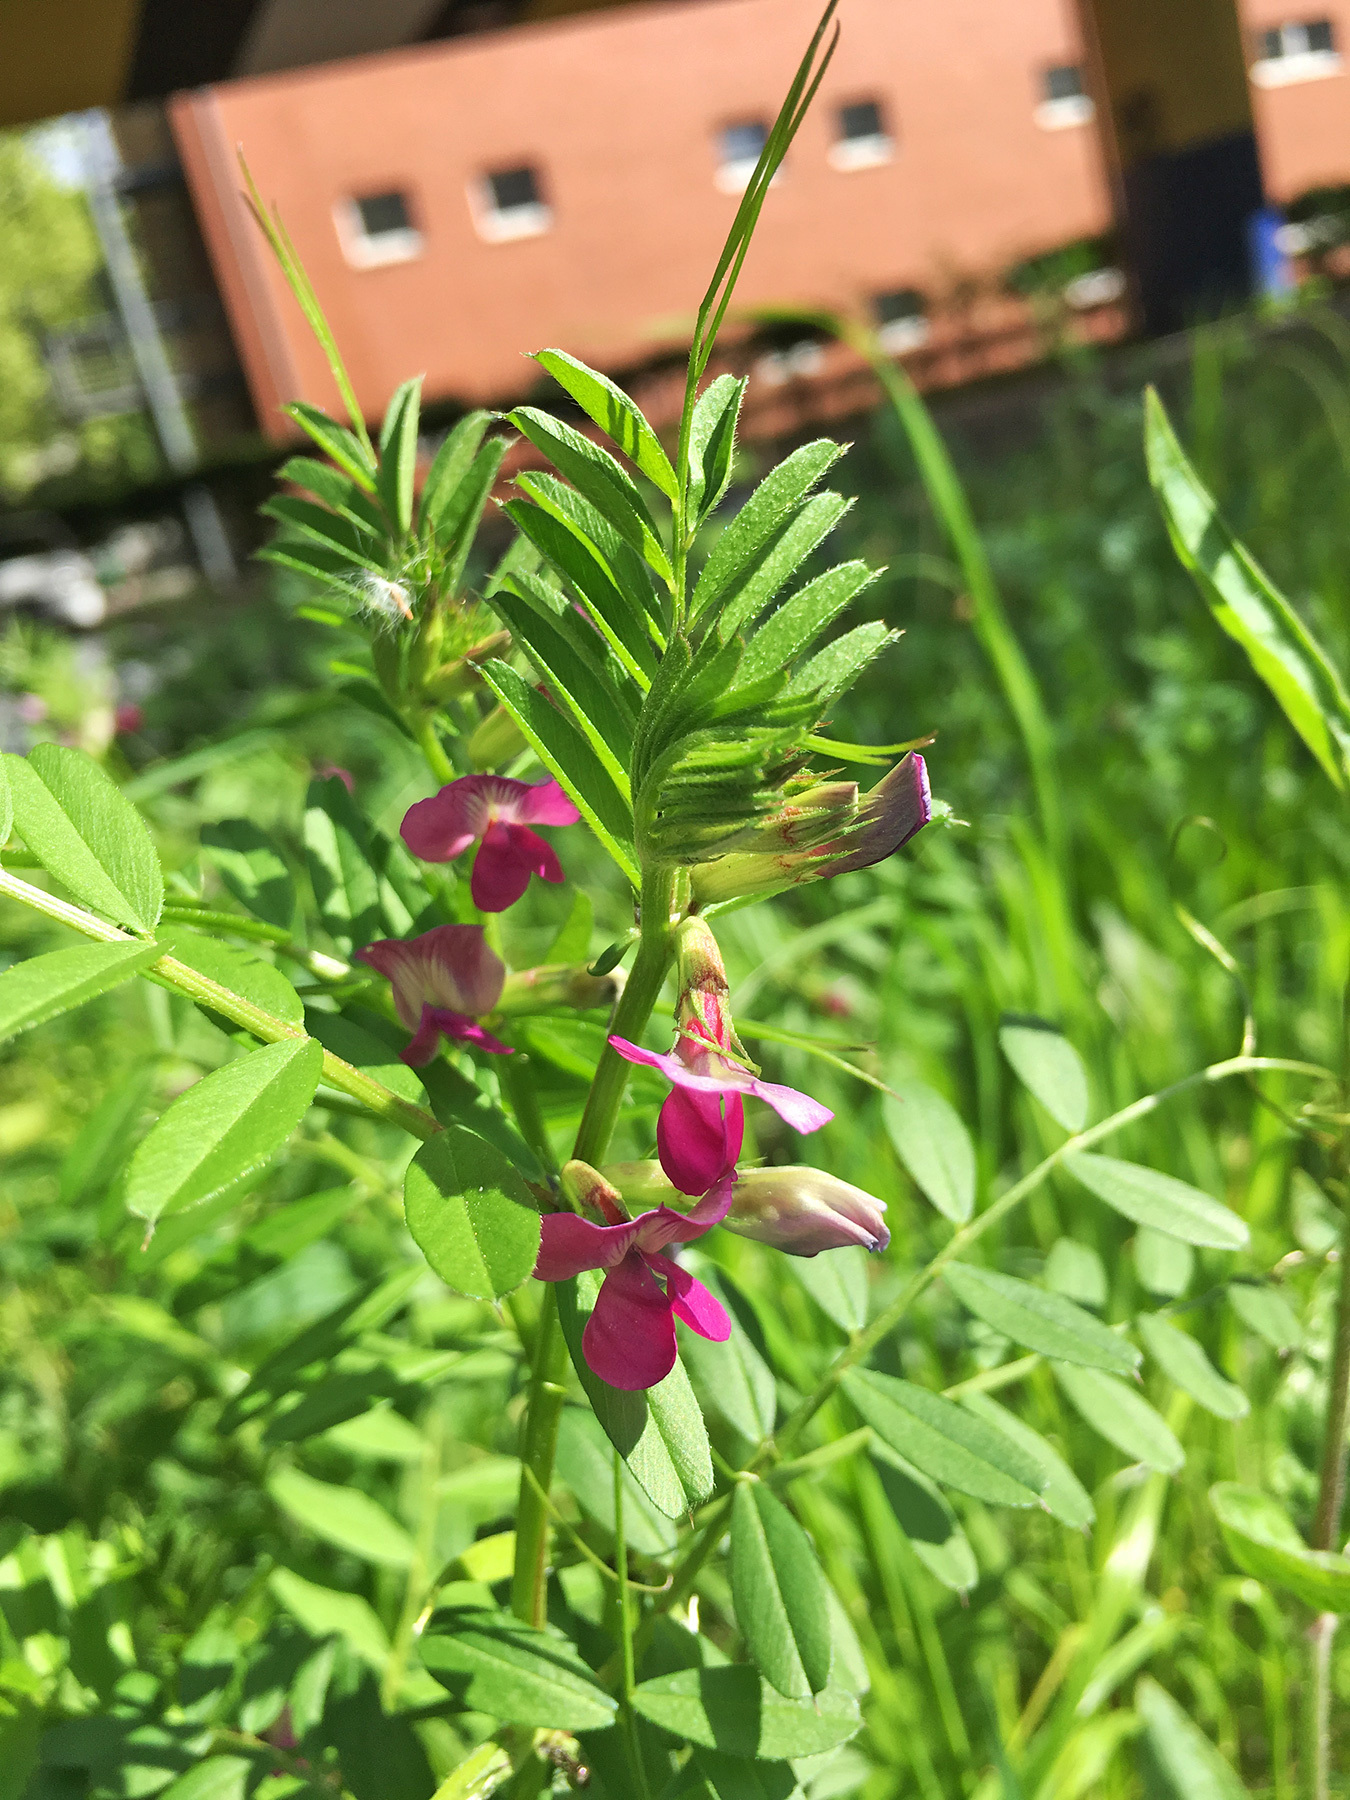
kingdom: Plantae
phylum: Tracheophyta
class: Magnoliopsida
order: Fabales
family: Fabaceae
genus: Vicia
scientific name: Vicia sativa
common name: Garden vetch
